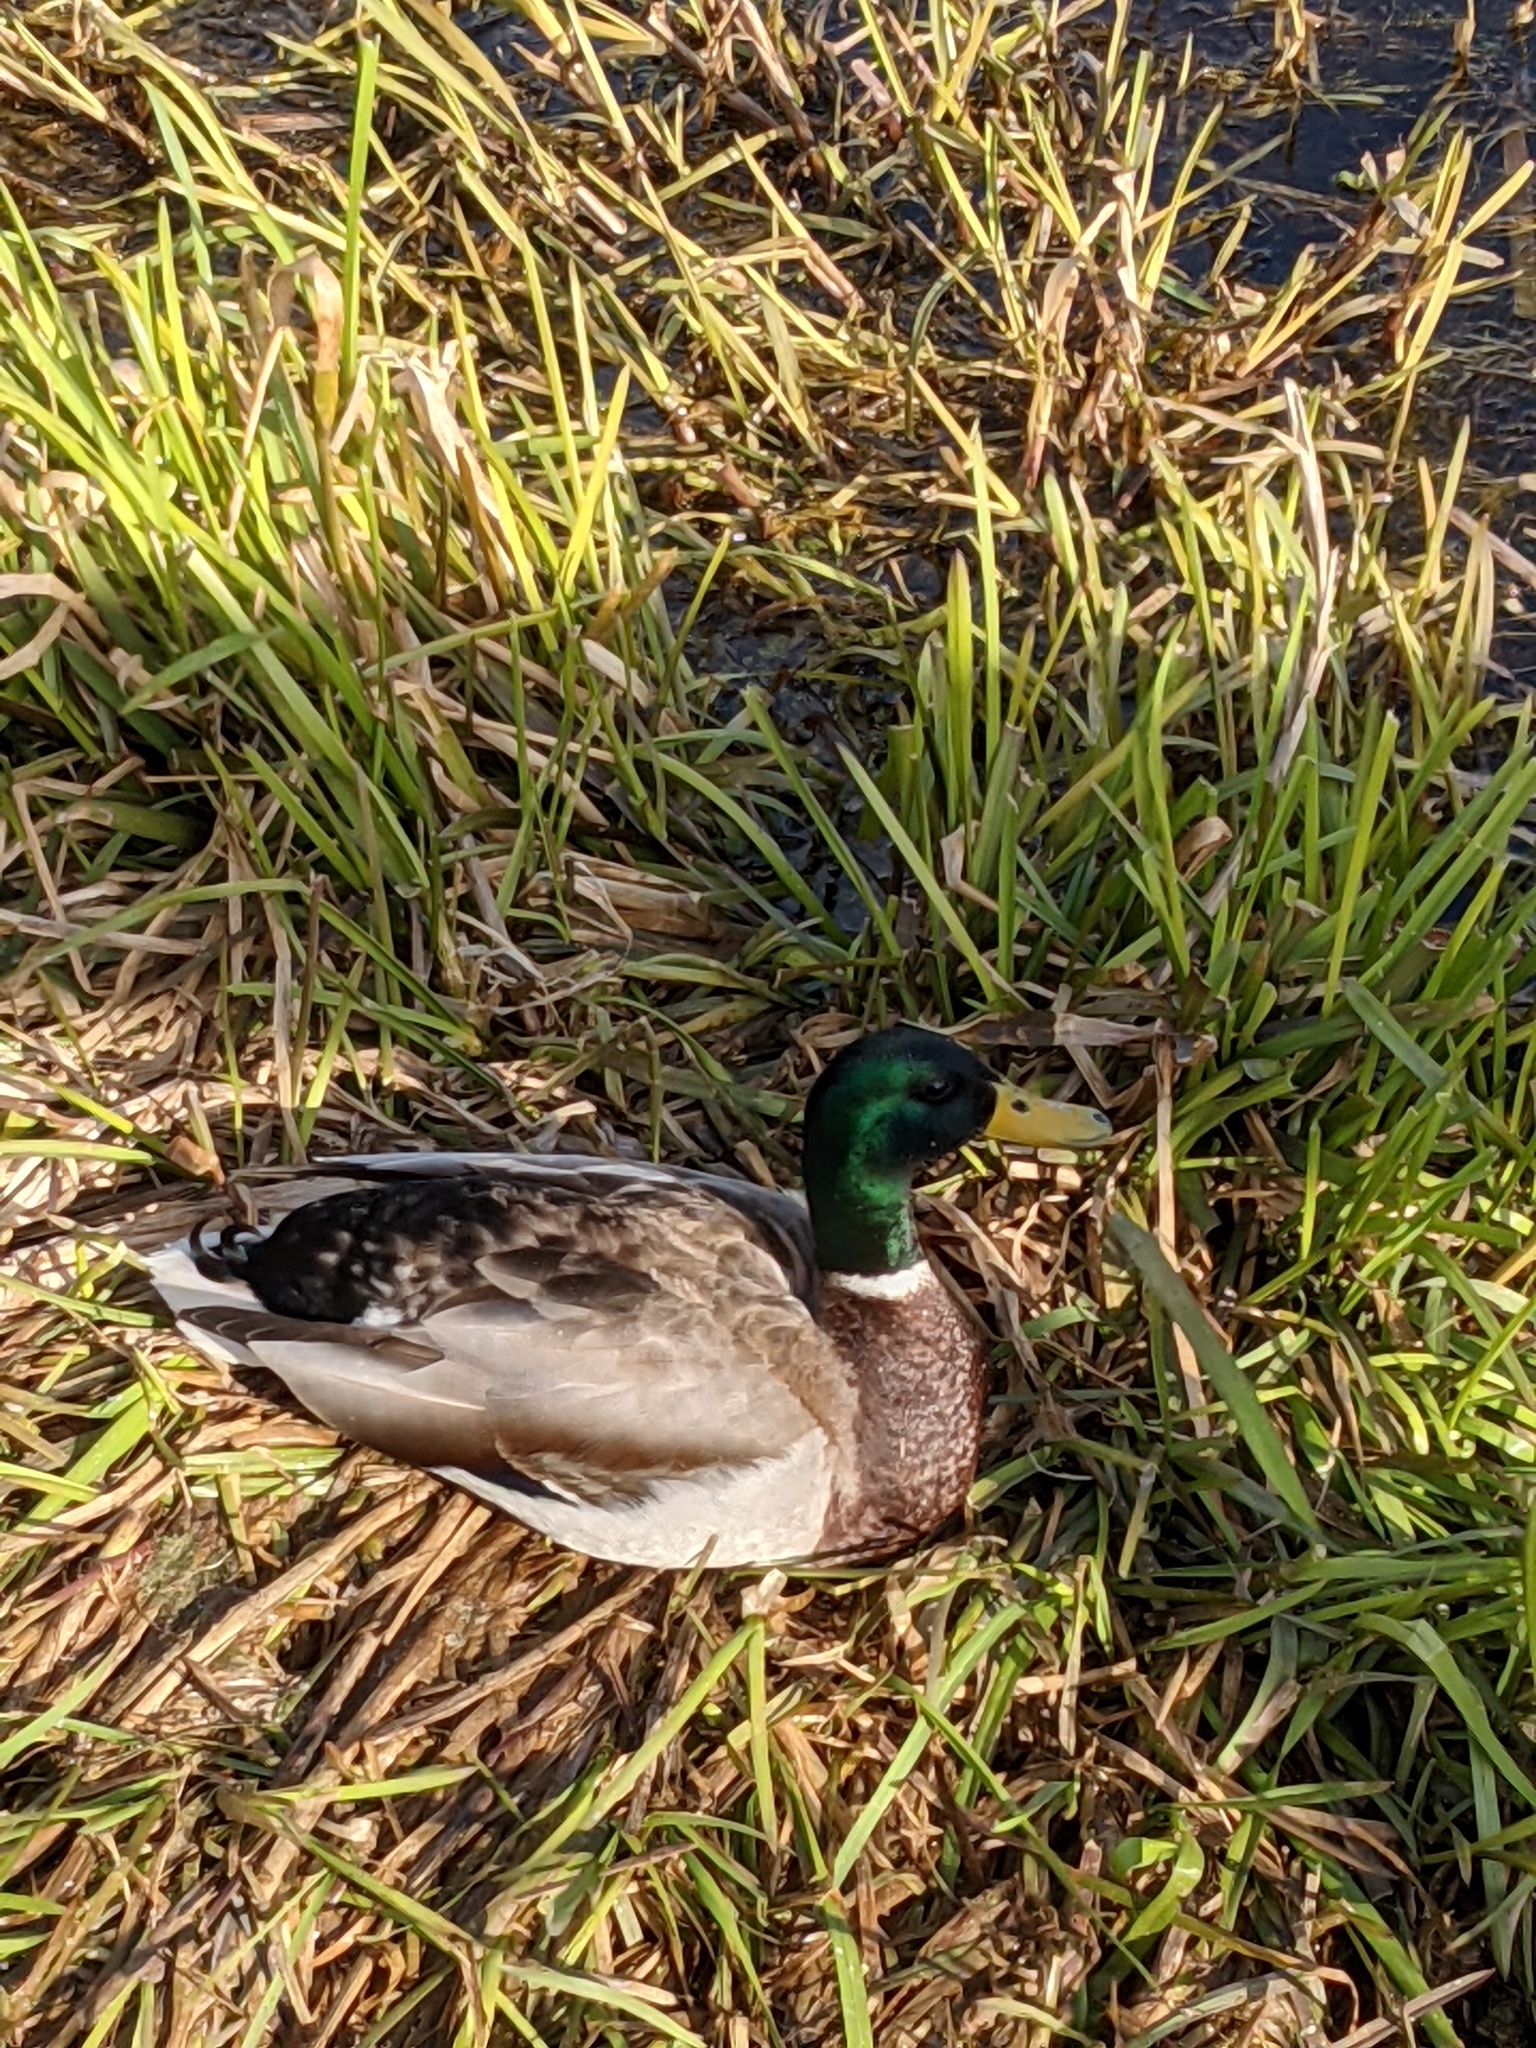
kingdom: Animalia
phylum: Chordata
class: Aves
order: Anseriformes
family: Anatidae
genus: Anas
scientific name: Anas platyrhynchos
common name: Mallard
